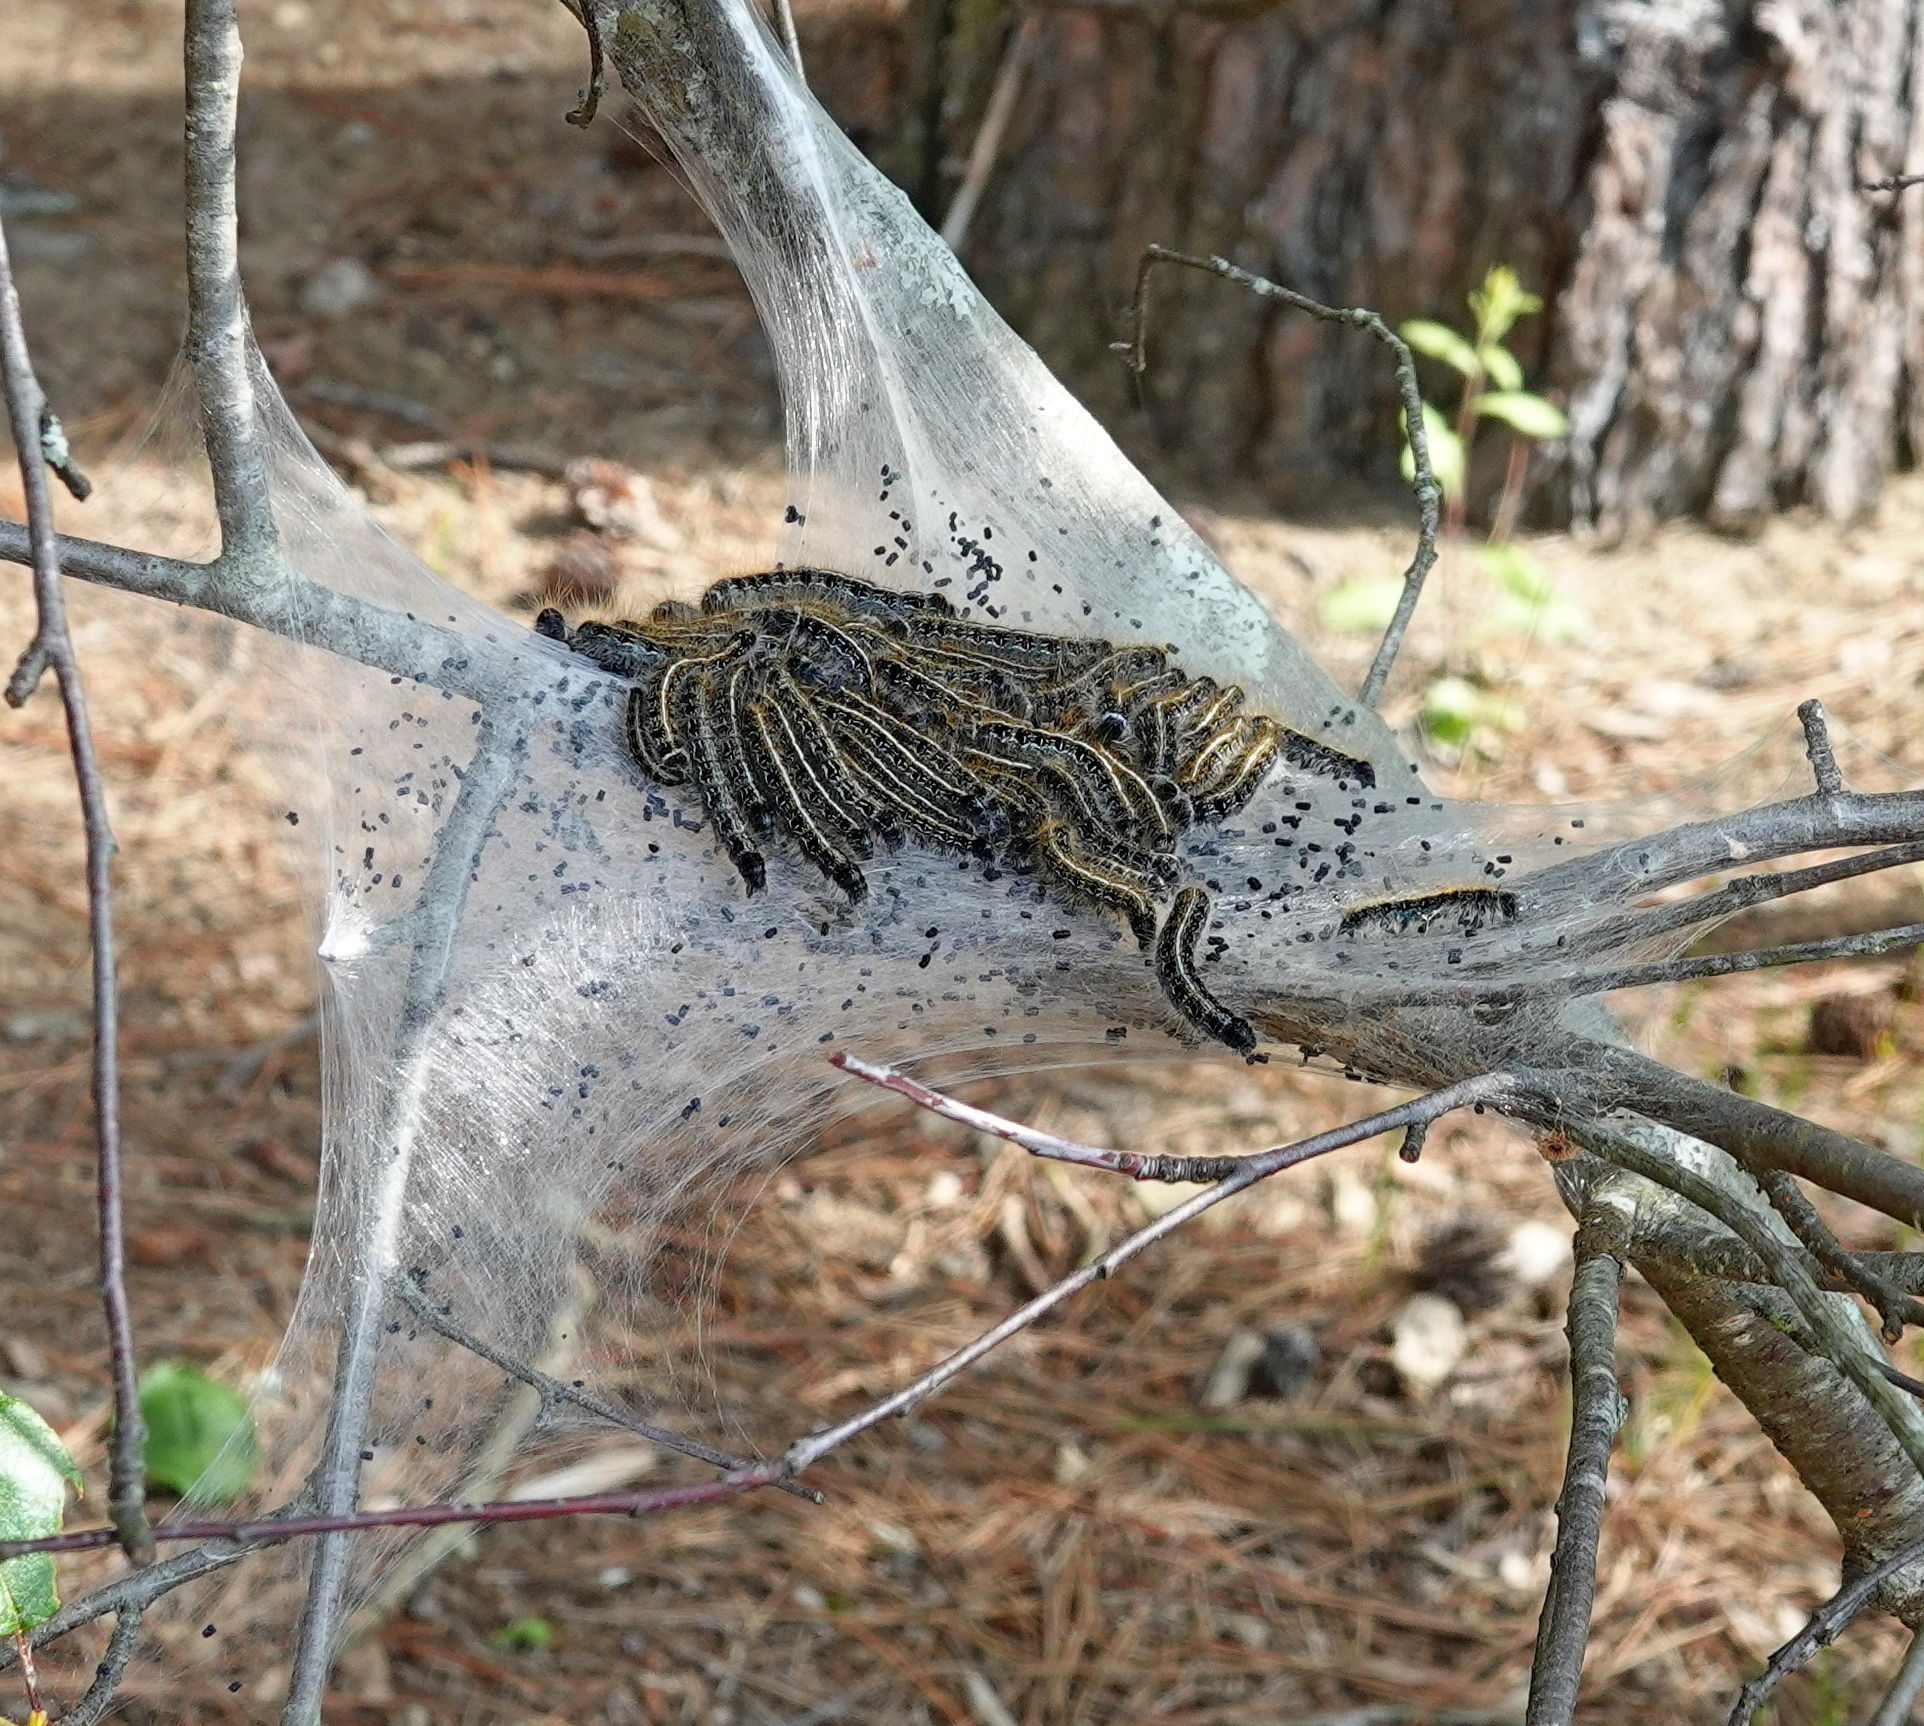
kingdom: Animalia
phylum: Arthropoda
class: Insecta
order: Lepidoptera
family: Lasiocampidae
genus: Malacosoma
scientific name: Malacosoma americana
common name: Eastern tent caterpillar moth
